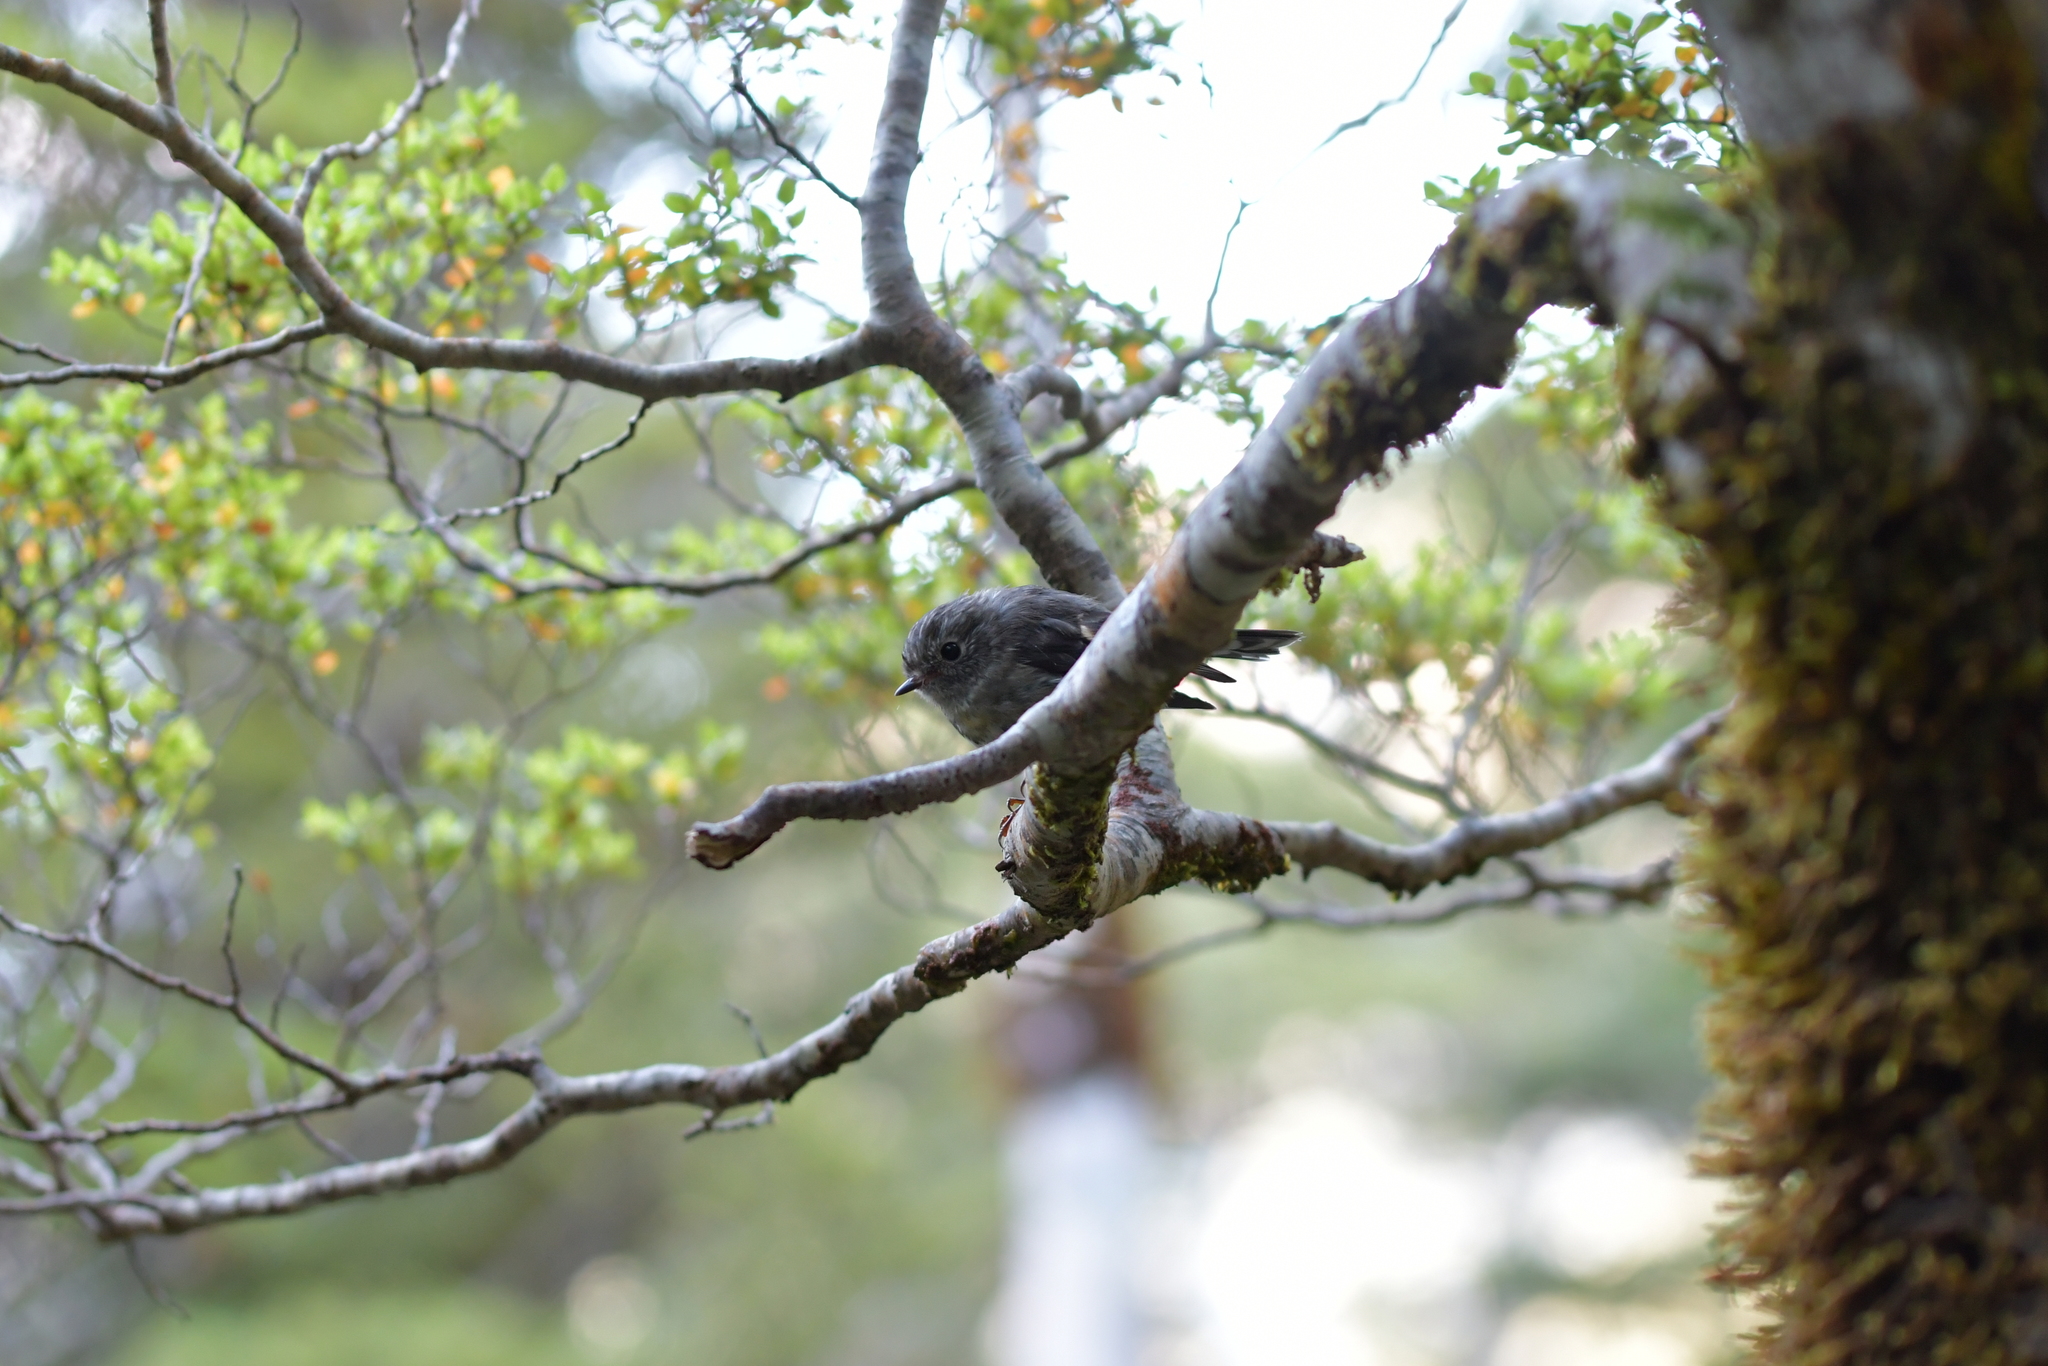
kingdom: Animalia
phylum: Chordata
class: Aves
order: Passeriformes
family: Petroicidae
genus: Petroica
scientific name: Petroica macrocephala
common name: Tomtit
